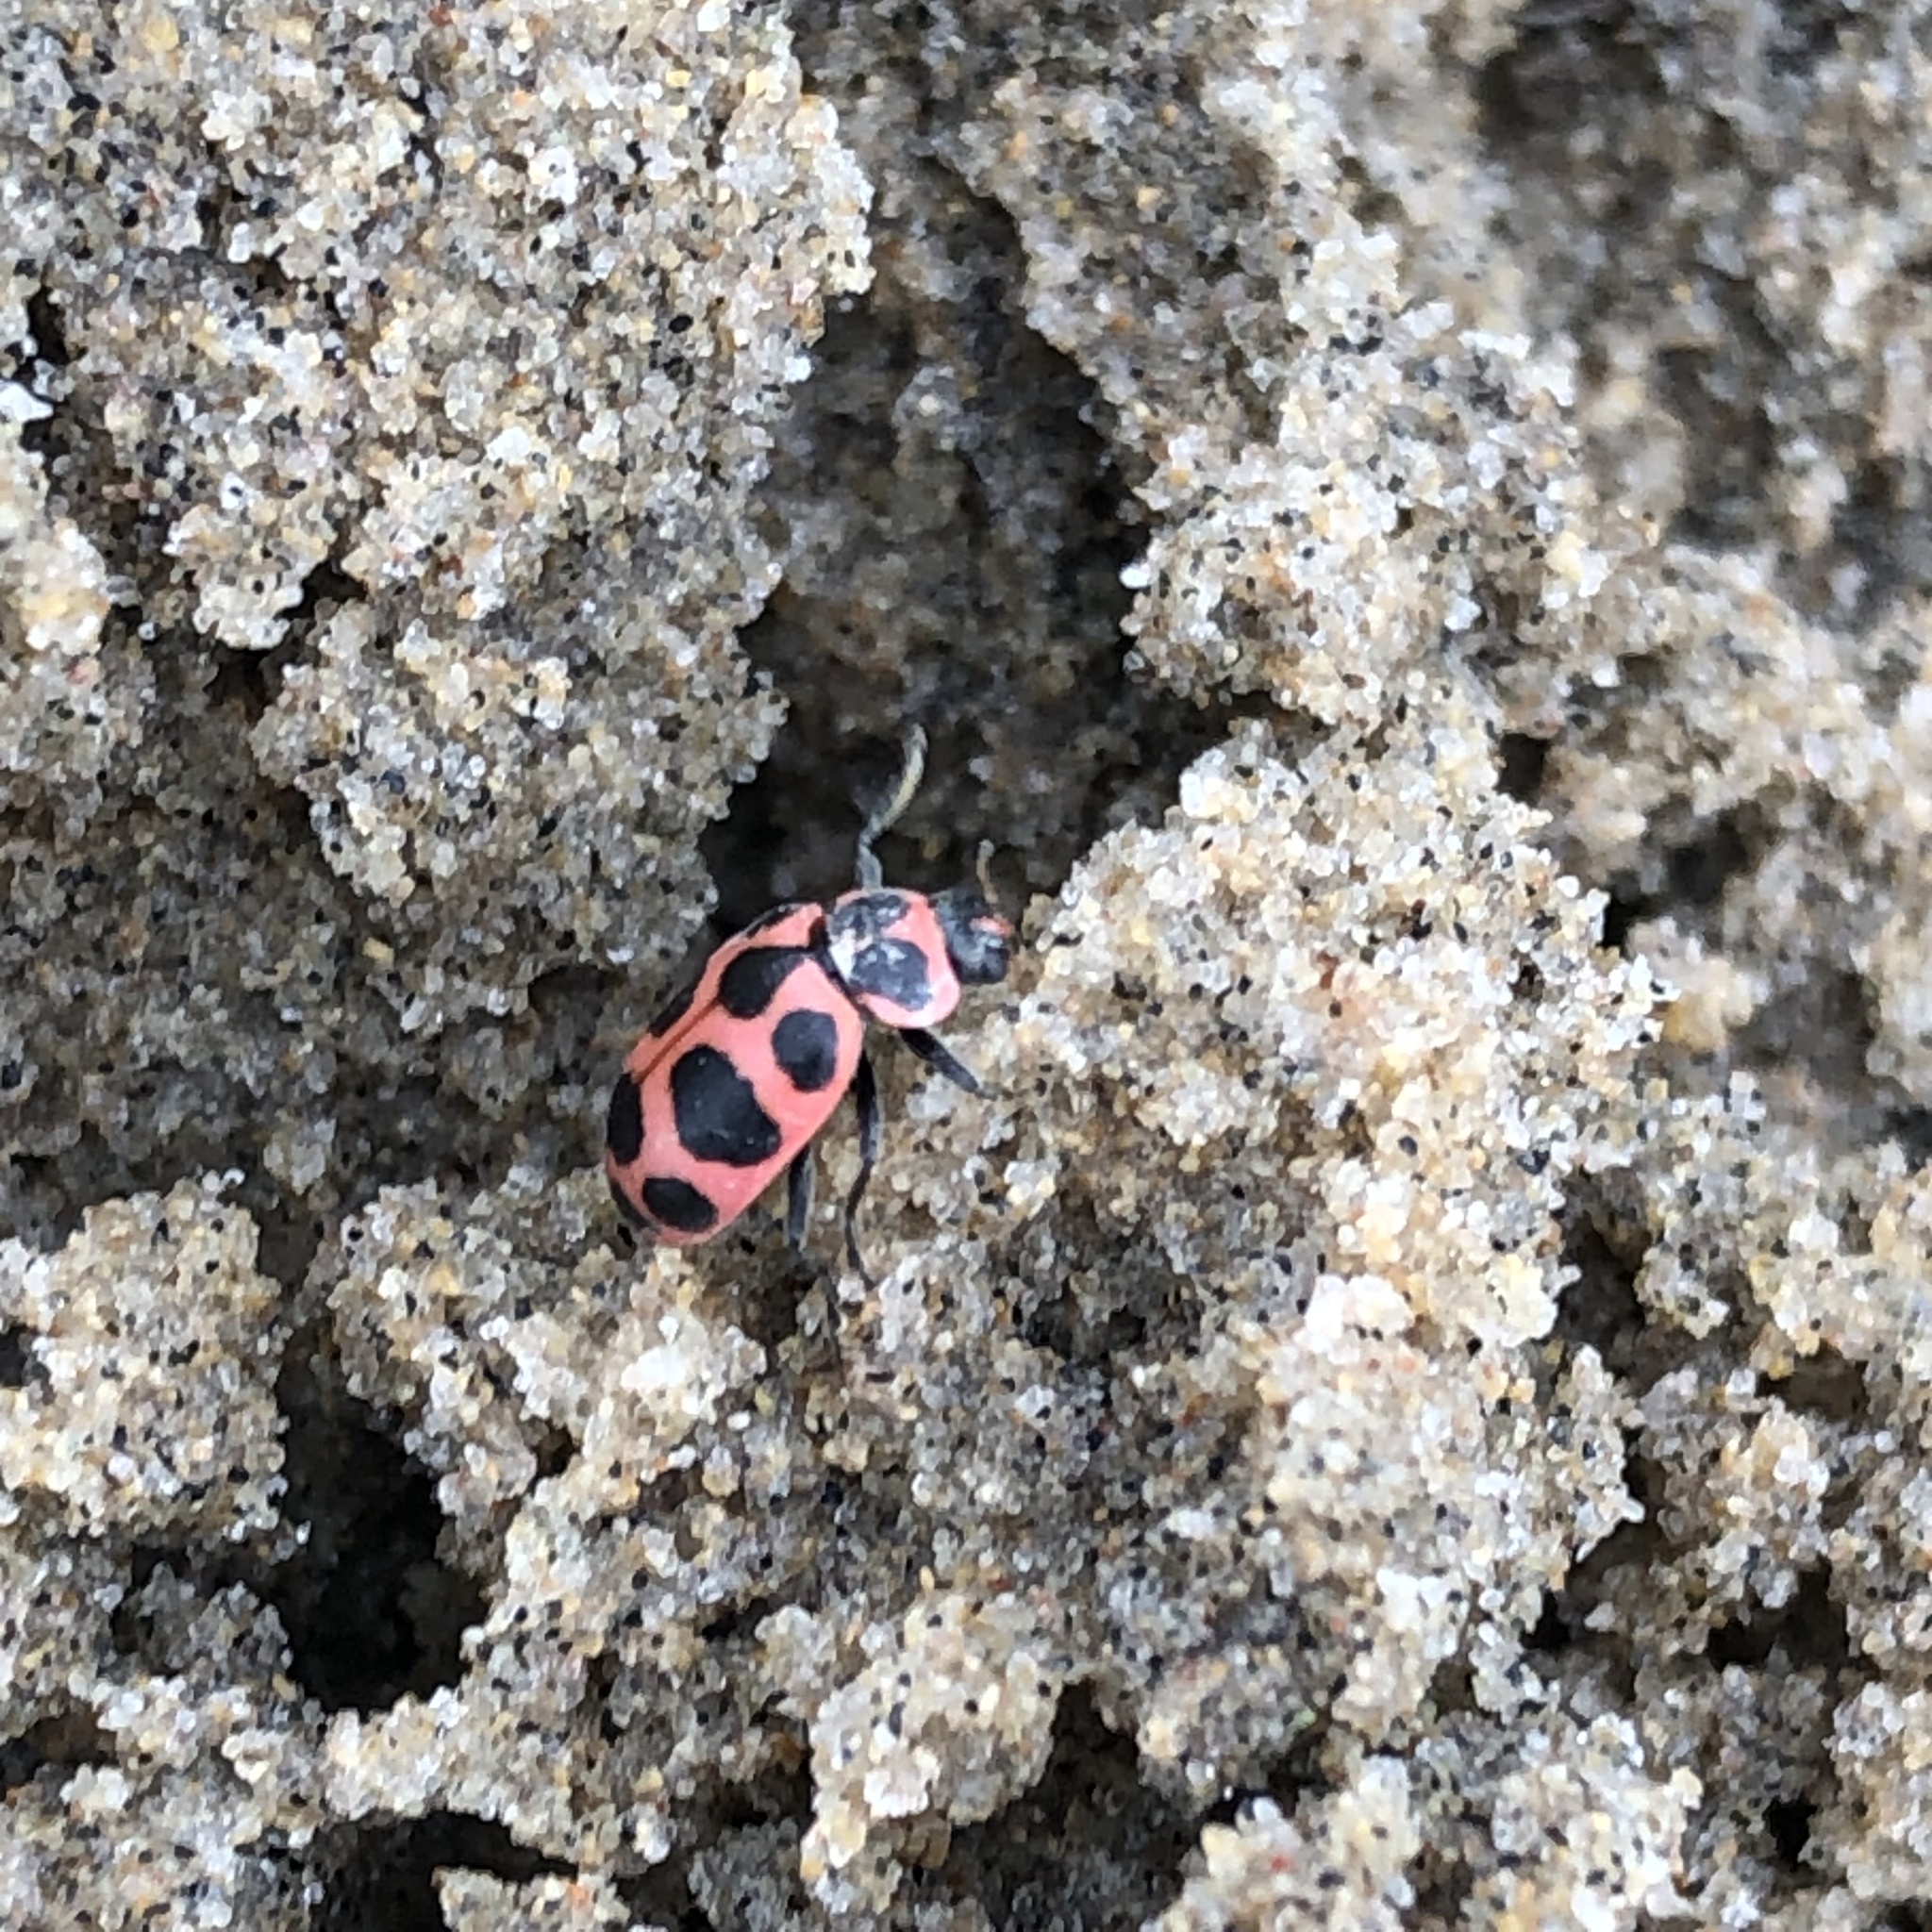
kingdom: Animalia
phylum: Arthropoda
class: Insecta
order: Coleoptera
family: Coccinellidae
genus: Coleomegilla
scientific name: Coleomegilla maculata
